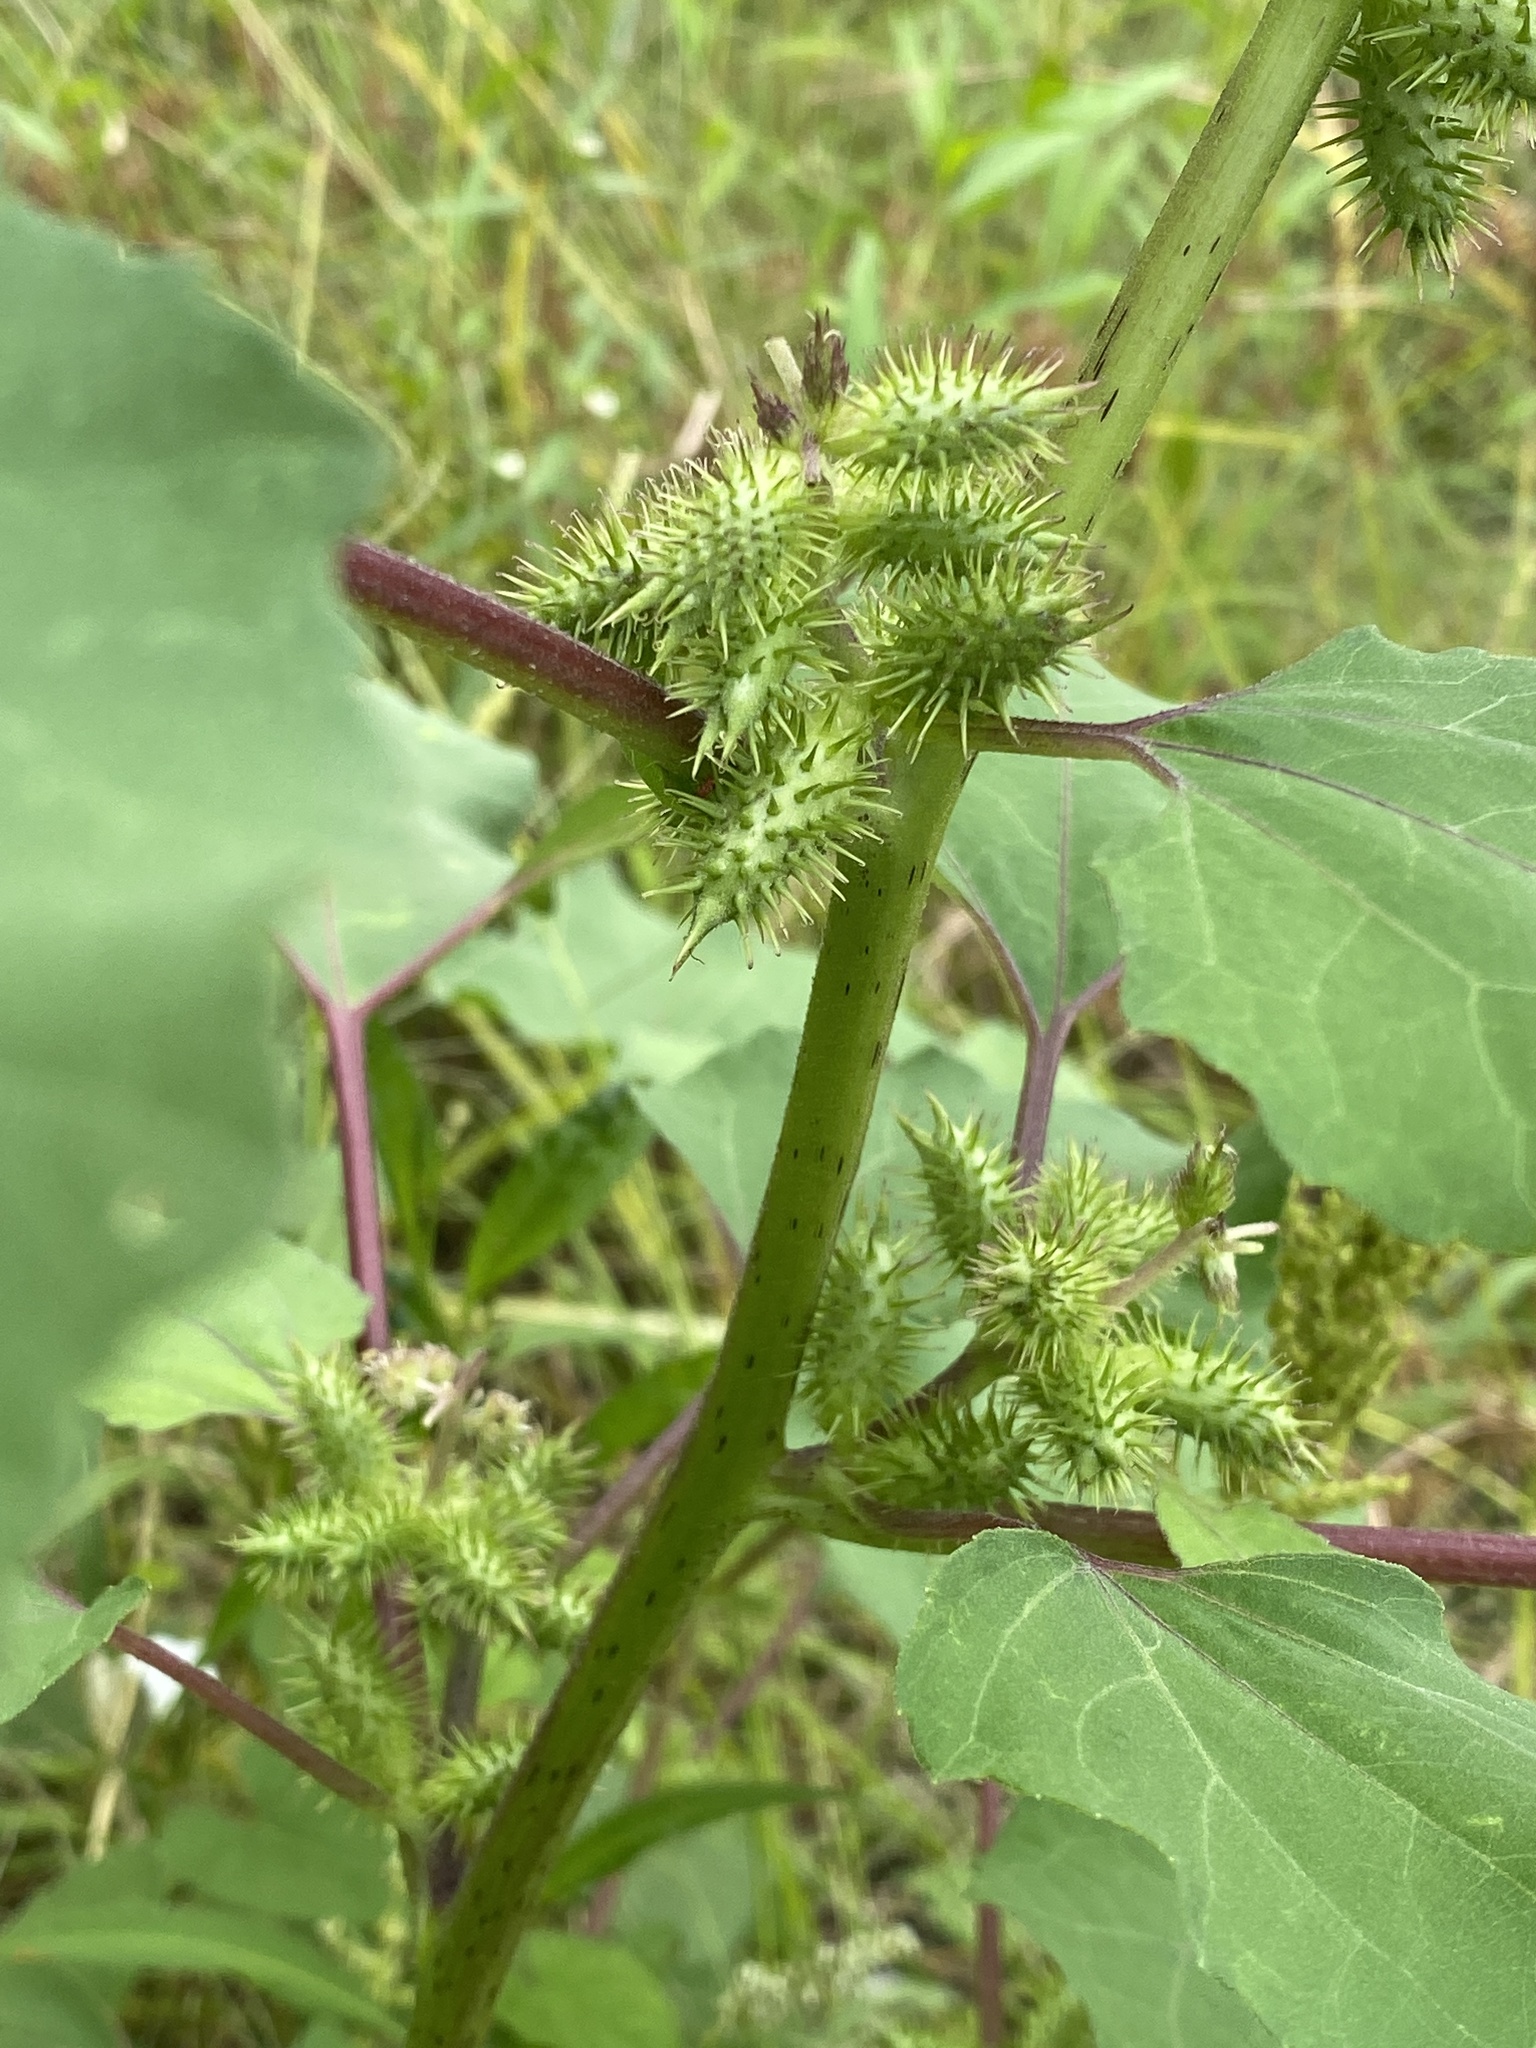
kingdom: Plantae
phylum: Tracheophyta
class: Magnoliopsida
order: Asterales
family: Asteraceae
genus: Xanthium
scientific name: Xanthium strumarium
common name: Rough cocklebur
